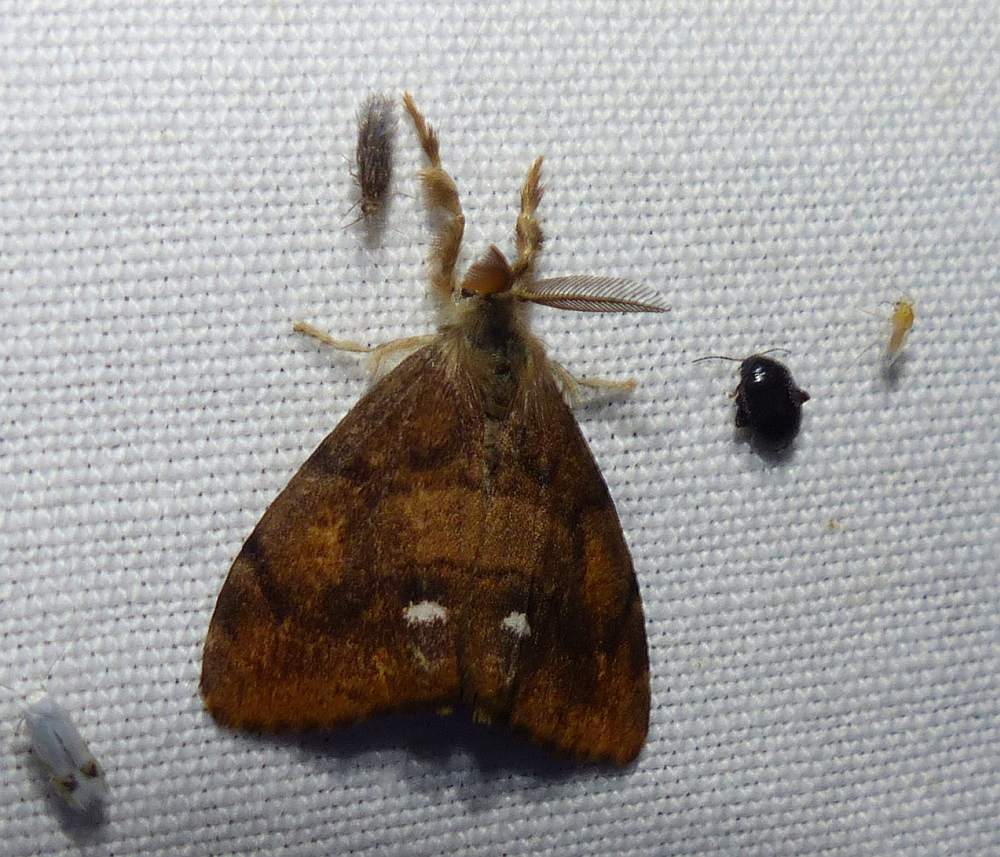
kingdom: Animalia
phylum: Arthropoda
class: Insecta
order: Lepidoptera
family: Erebidae
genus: Orgyia
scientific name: Orgyia antiqua
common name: Vapourer
